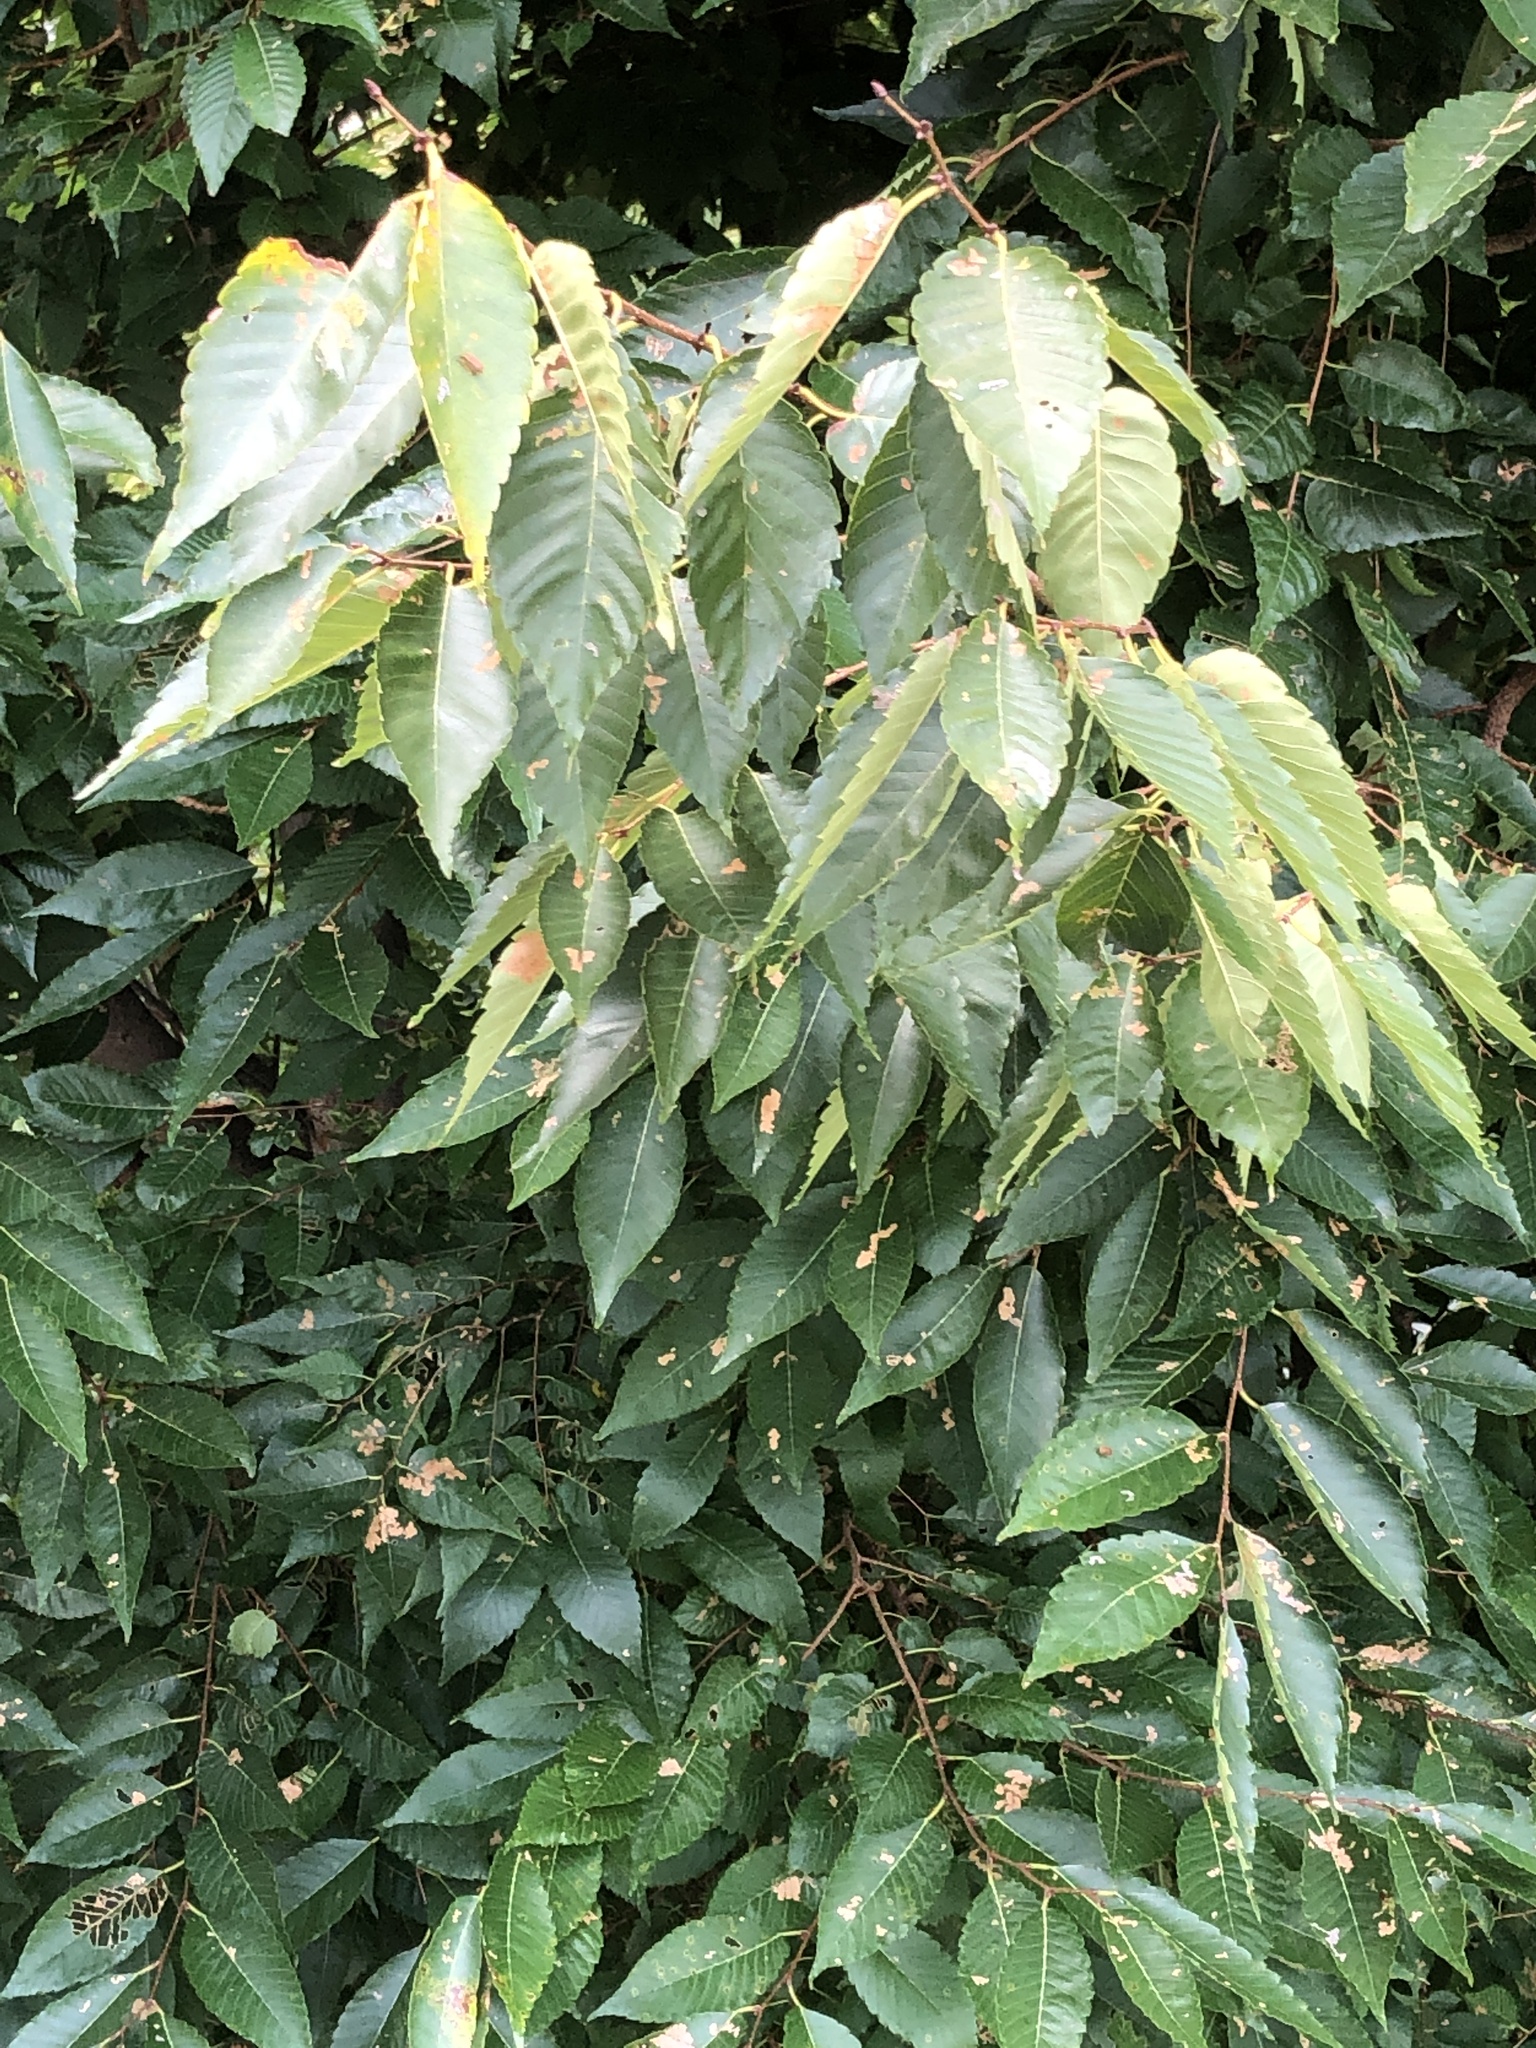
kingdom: Plantae
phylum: Tracheophyta
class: Magnoliopsida
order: Rosales
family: Ulmaceae
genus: Zelkova
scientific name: Zelkova serrata
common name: Japanese zelkova
